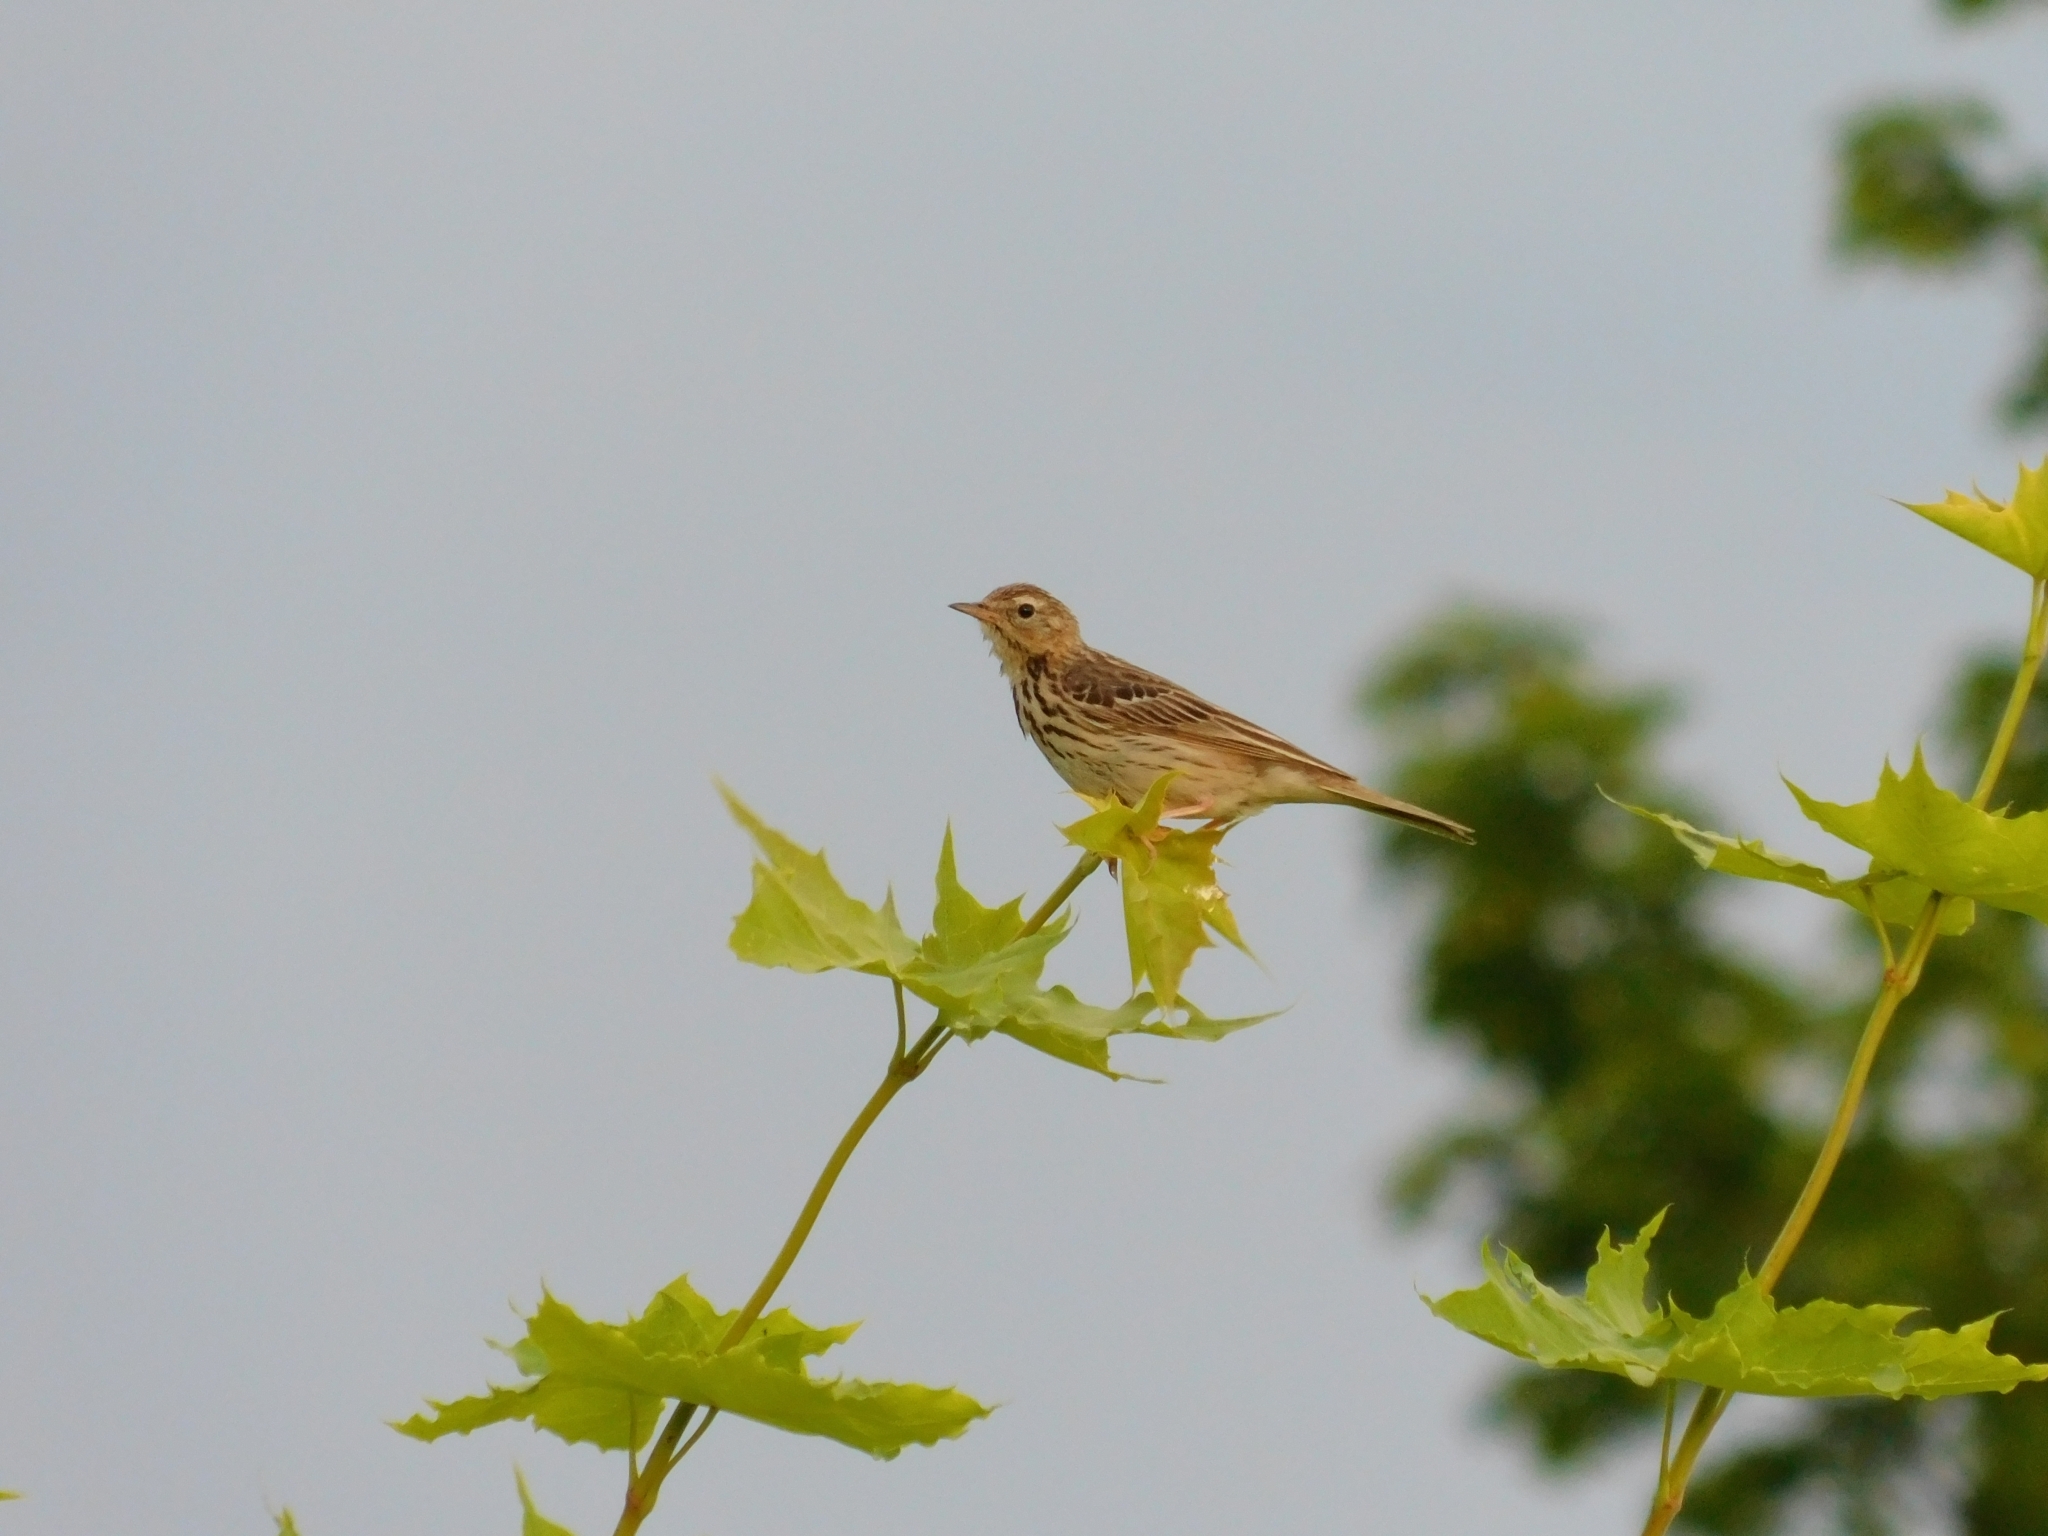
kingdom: Animalia
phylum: Chordata
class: Aves
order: Passeriformes
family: Motacillidae
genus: Anthus
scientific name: Anthus trivialis
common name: Tree pipit
